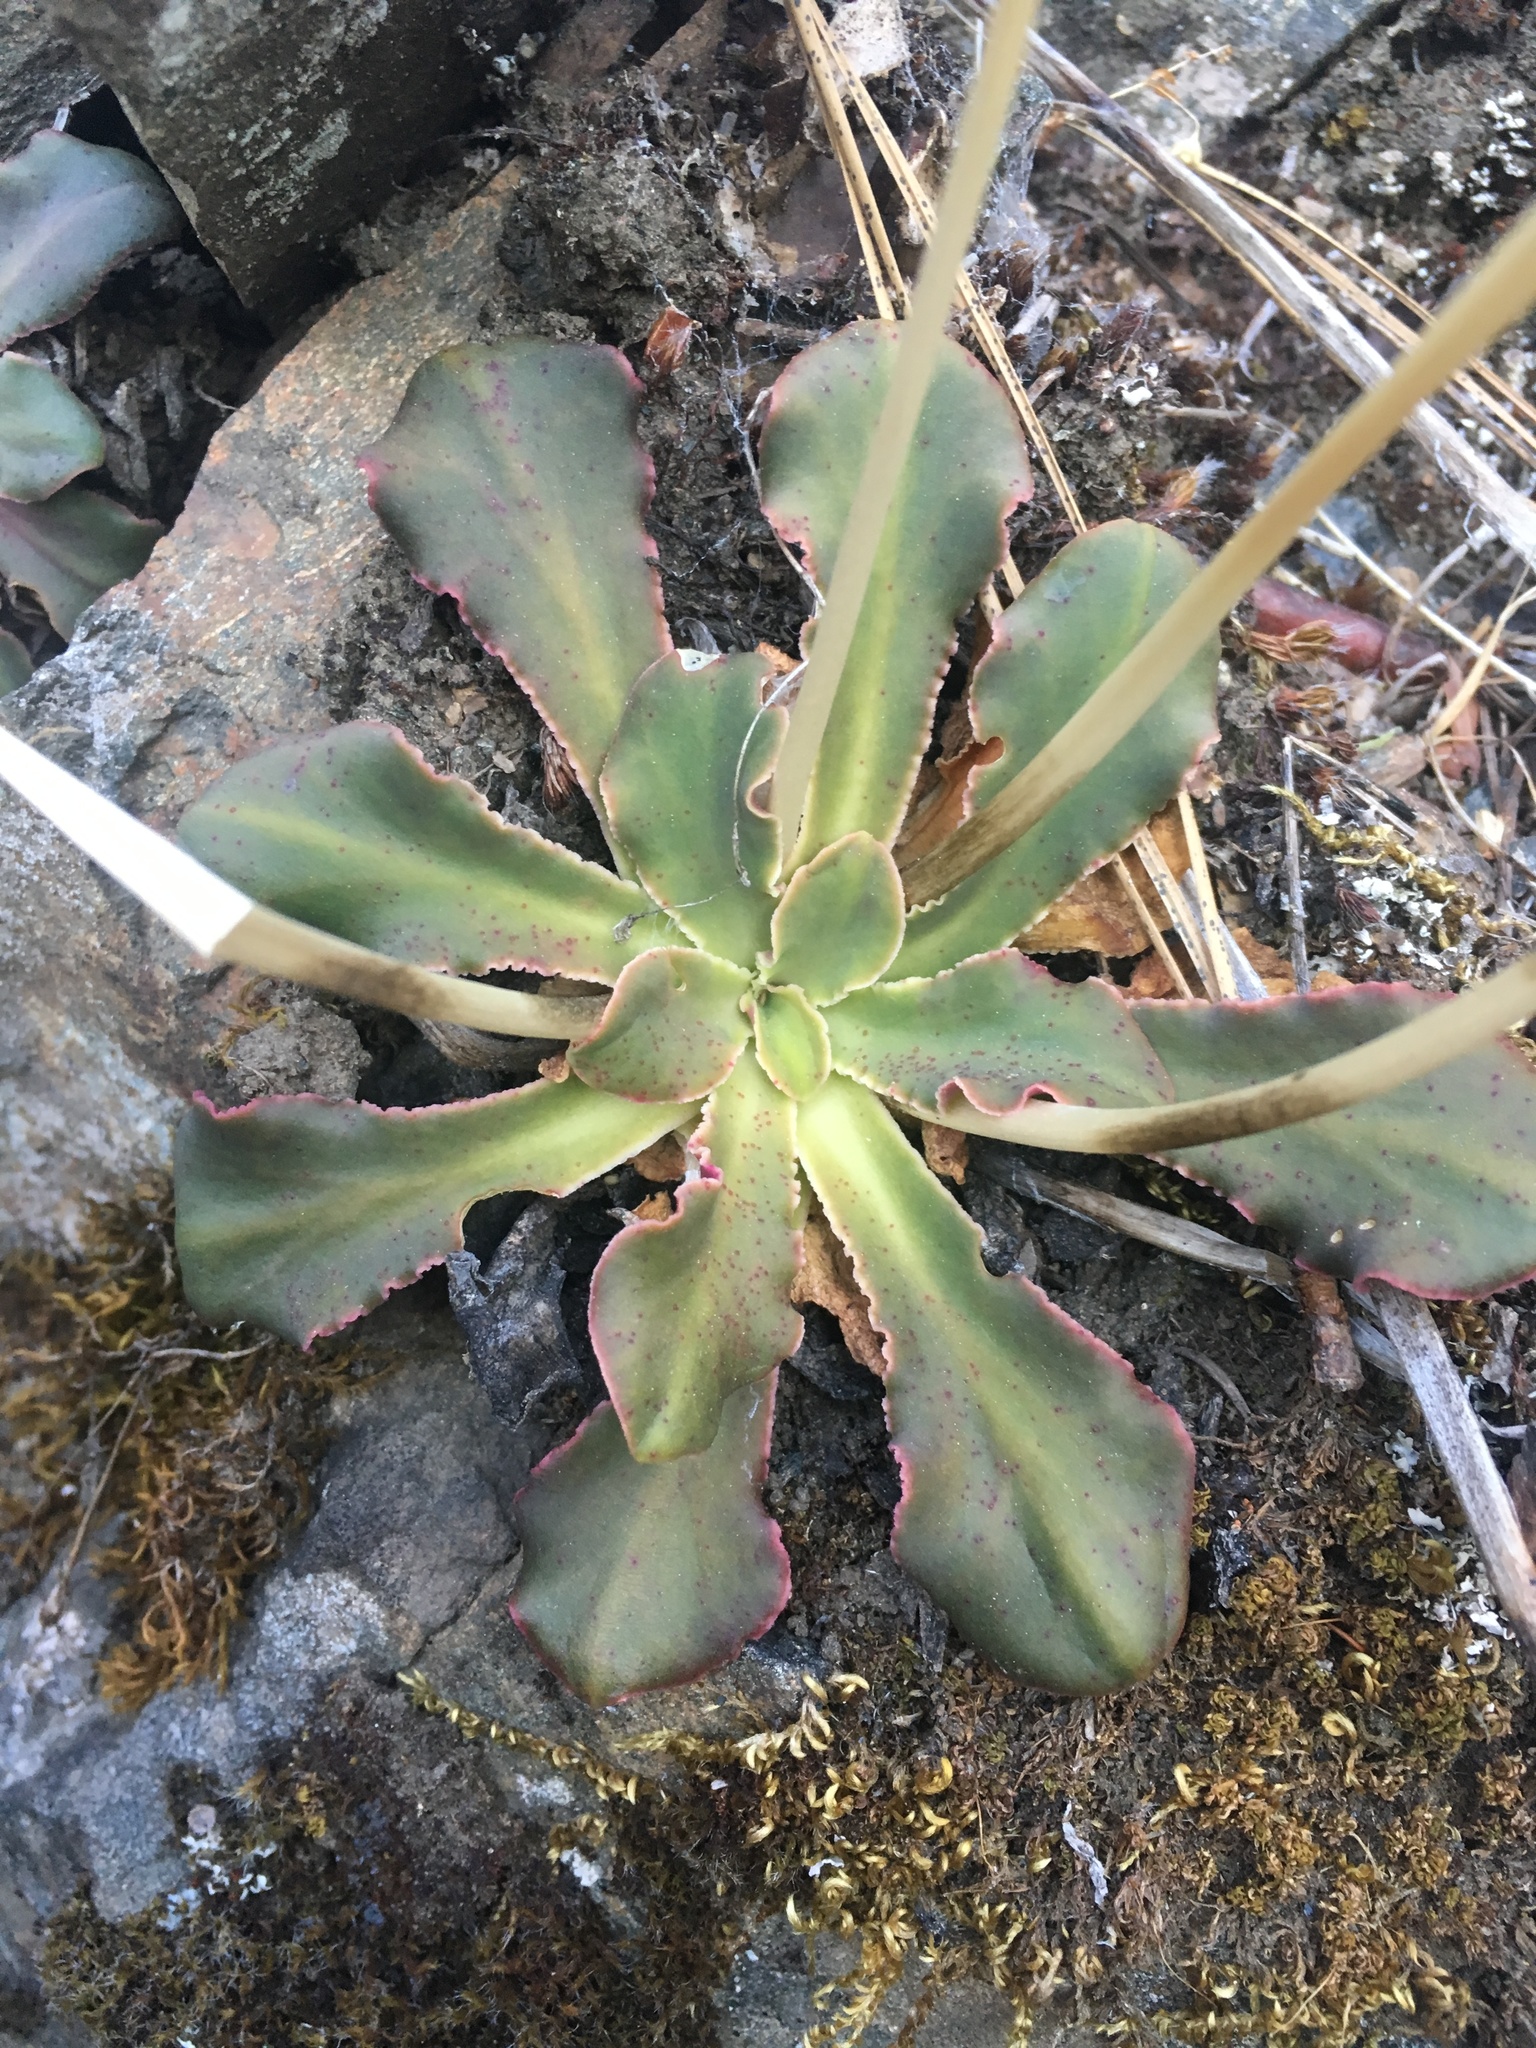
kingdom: Plantae
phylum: Tracheophyta
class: Magnoliopsida
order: Caryophyllales
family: Montiaceae
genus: Lewisia
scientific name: Lewisia cotyledon
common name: Siskiyou lewisia
